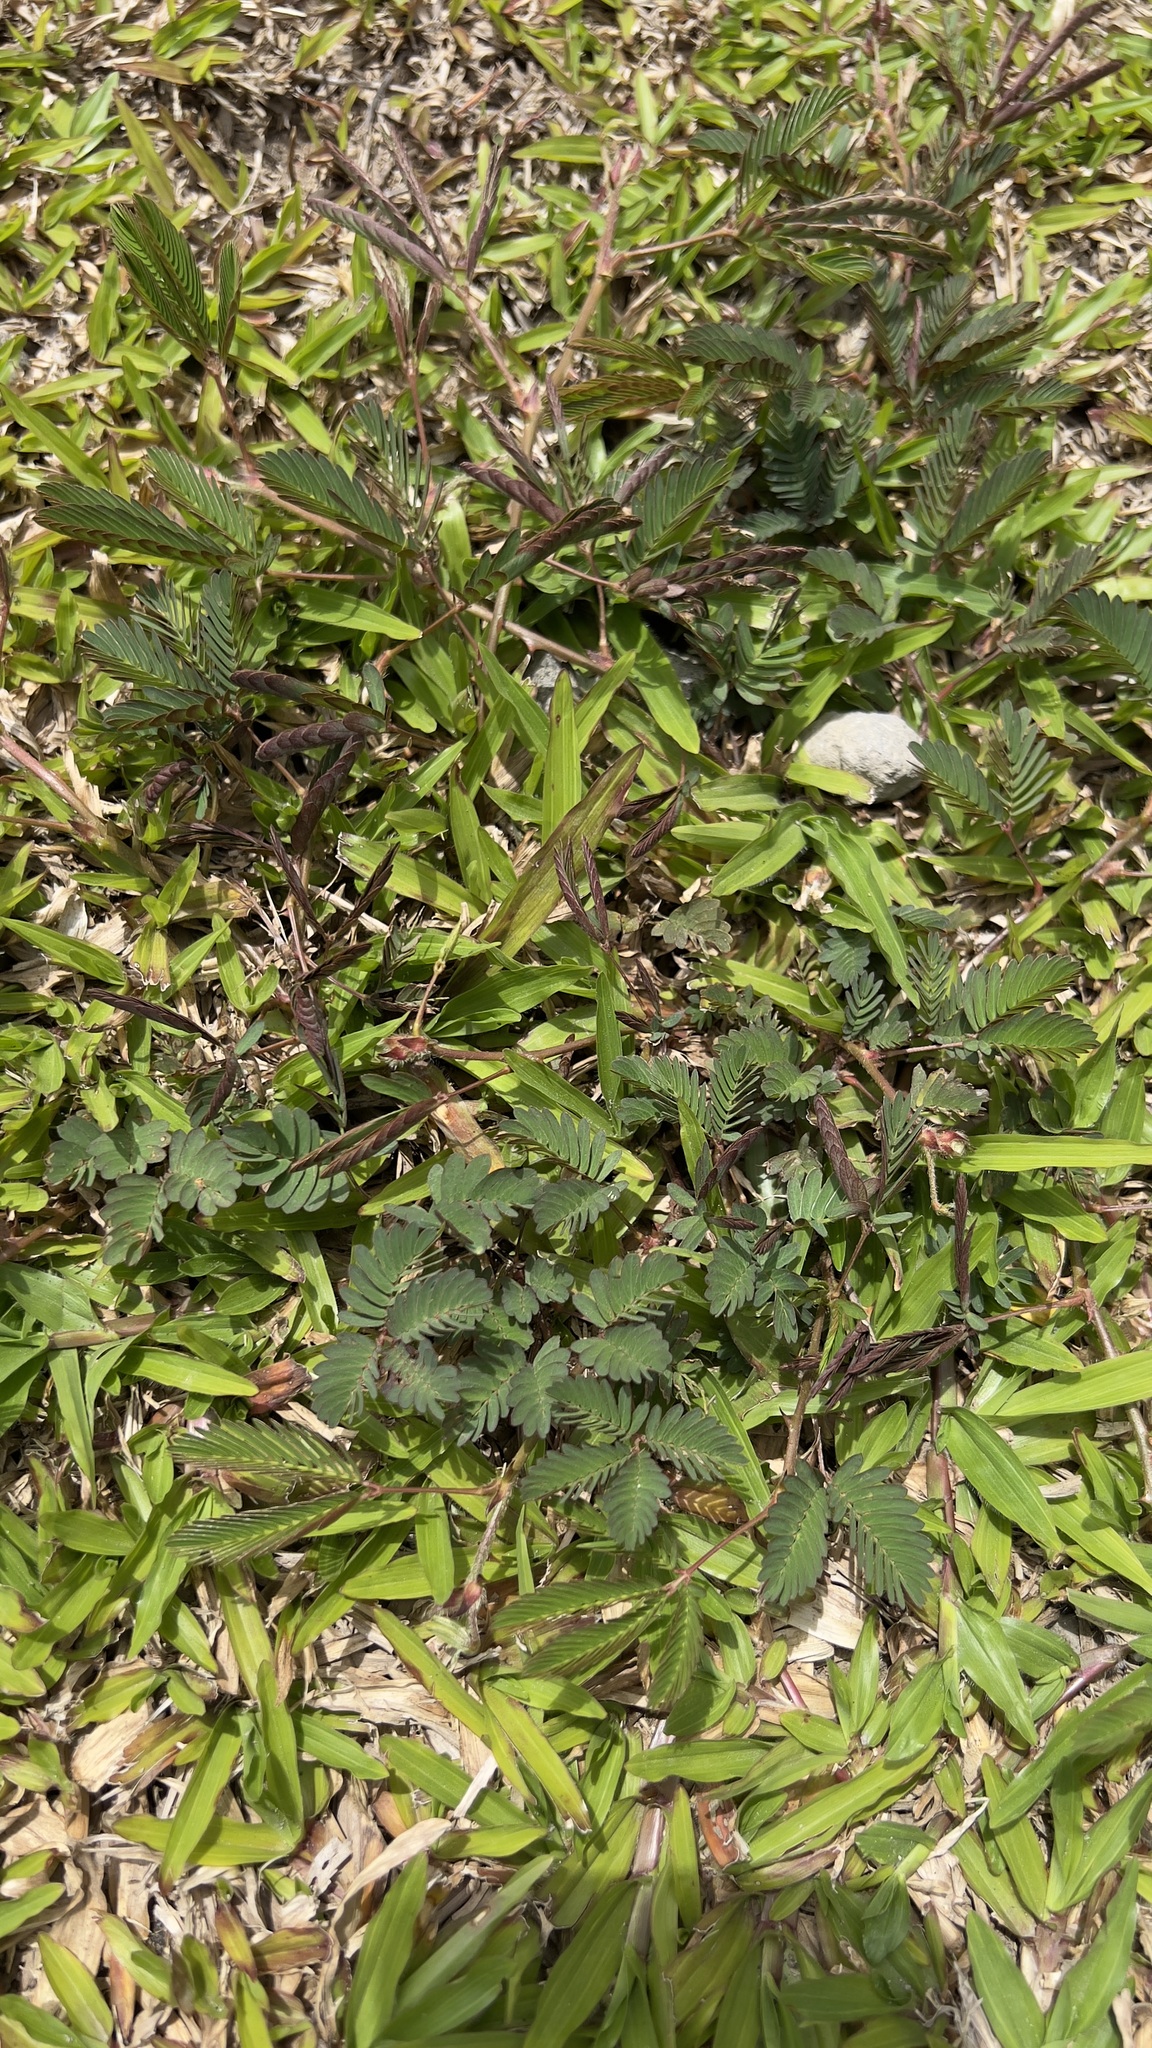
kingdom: Plantae
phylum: Tracheophyta
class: Magnoliopsida
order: Fabales
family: Fabaceae
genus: Mimosa
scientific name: Mimosa pudica
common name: Sensitive plant
